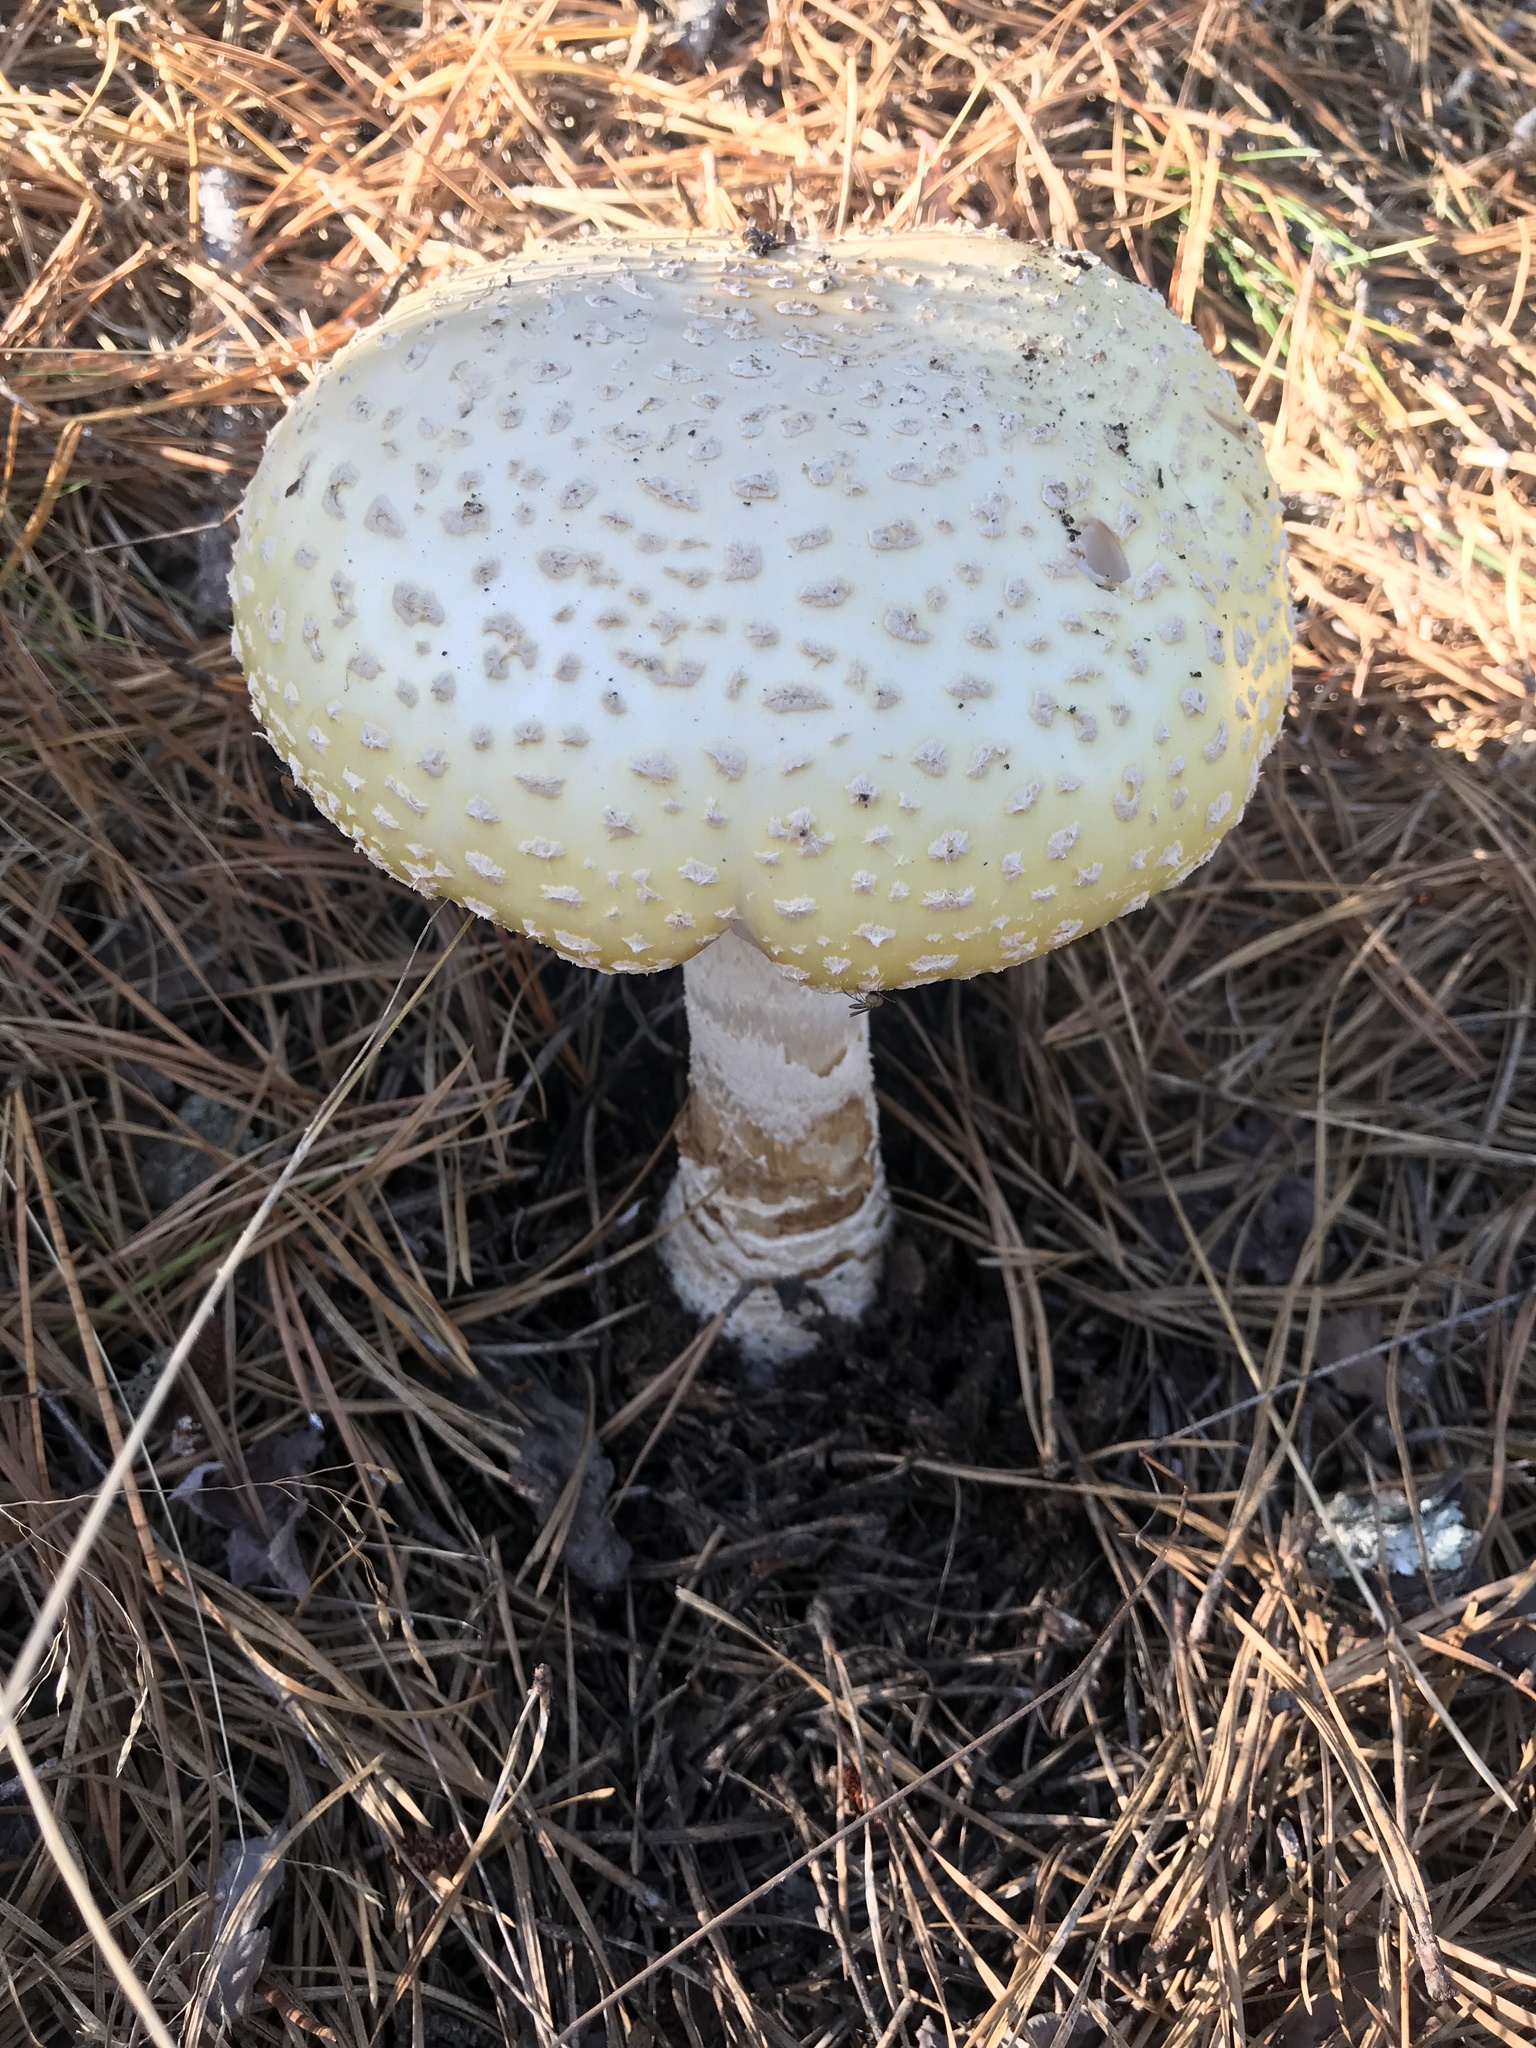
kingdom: Fungi
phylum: Basidiomycota
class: Agaricomycetes
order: Agaricales
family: Amanitaceae
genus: Amanita
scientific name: Amanita muscaria
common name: Fly agaric
